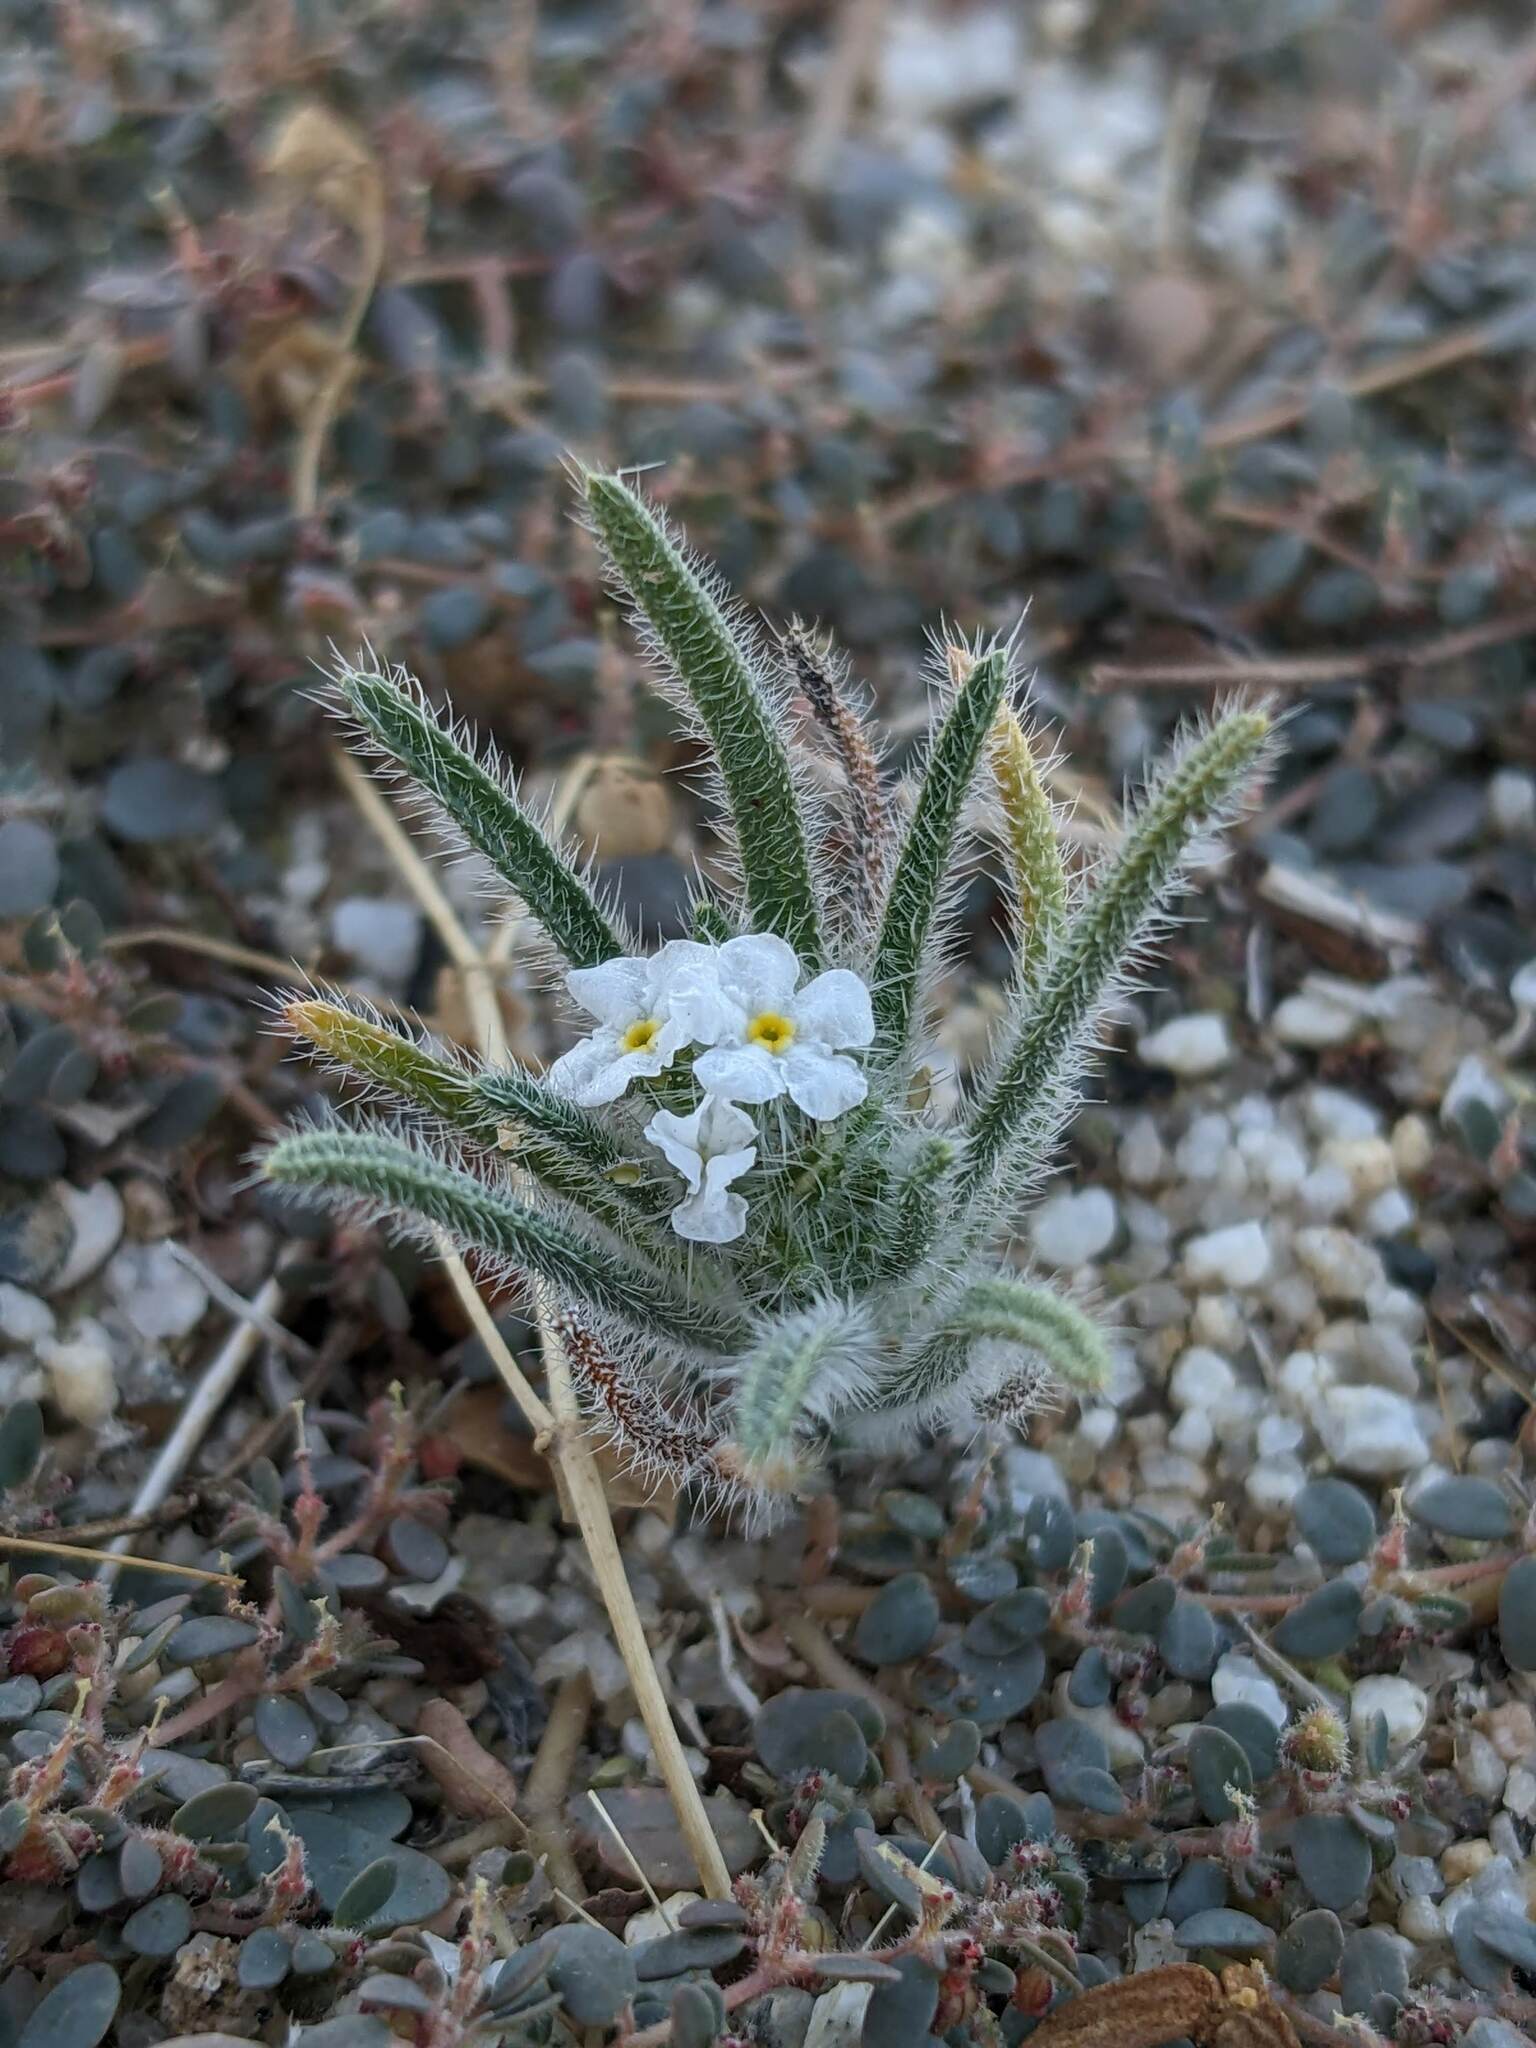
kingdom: Plantae
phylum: Tracheophyta
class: Magnoliopsida
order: Boraginales
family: Boraginaceae
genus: Johnstonella
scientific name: Johnstonella angustifolia
